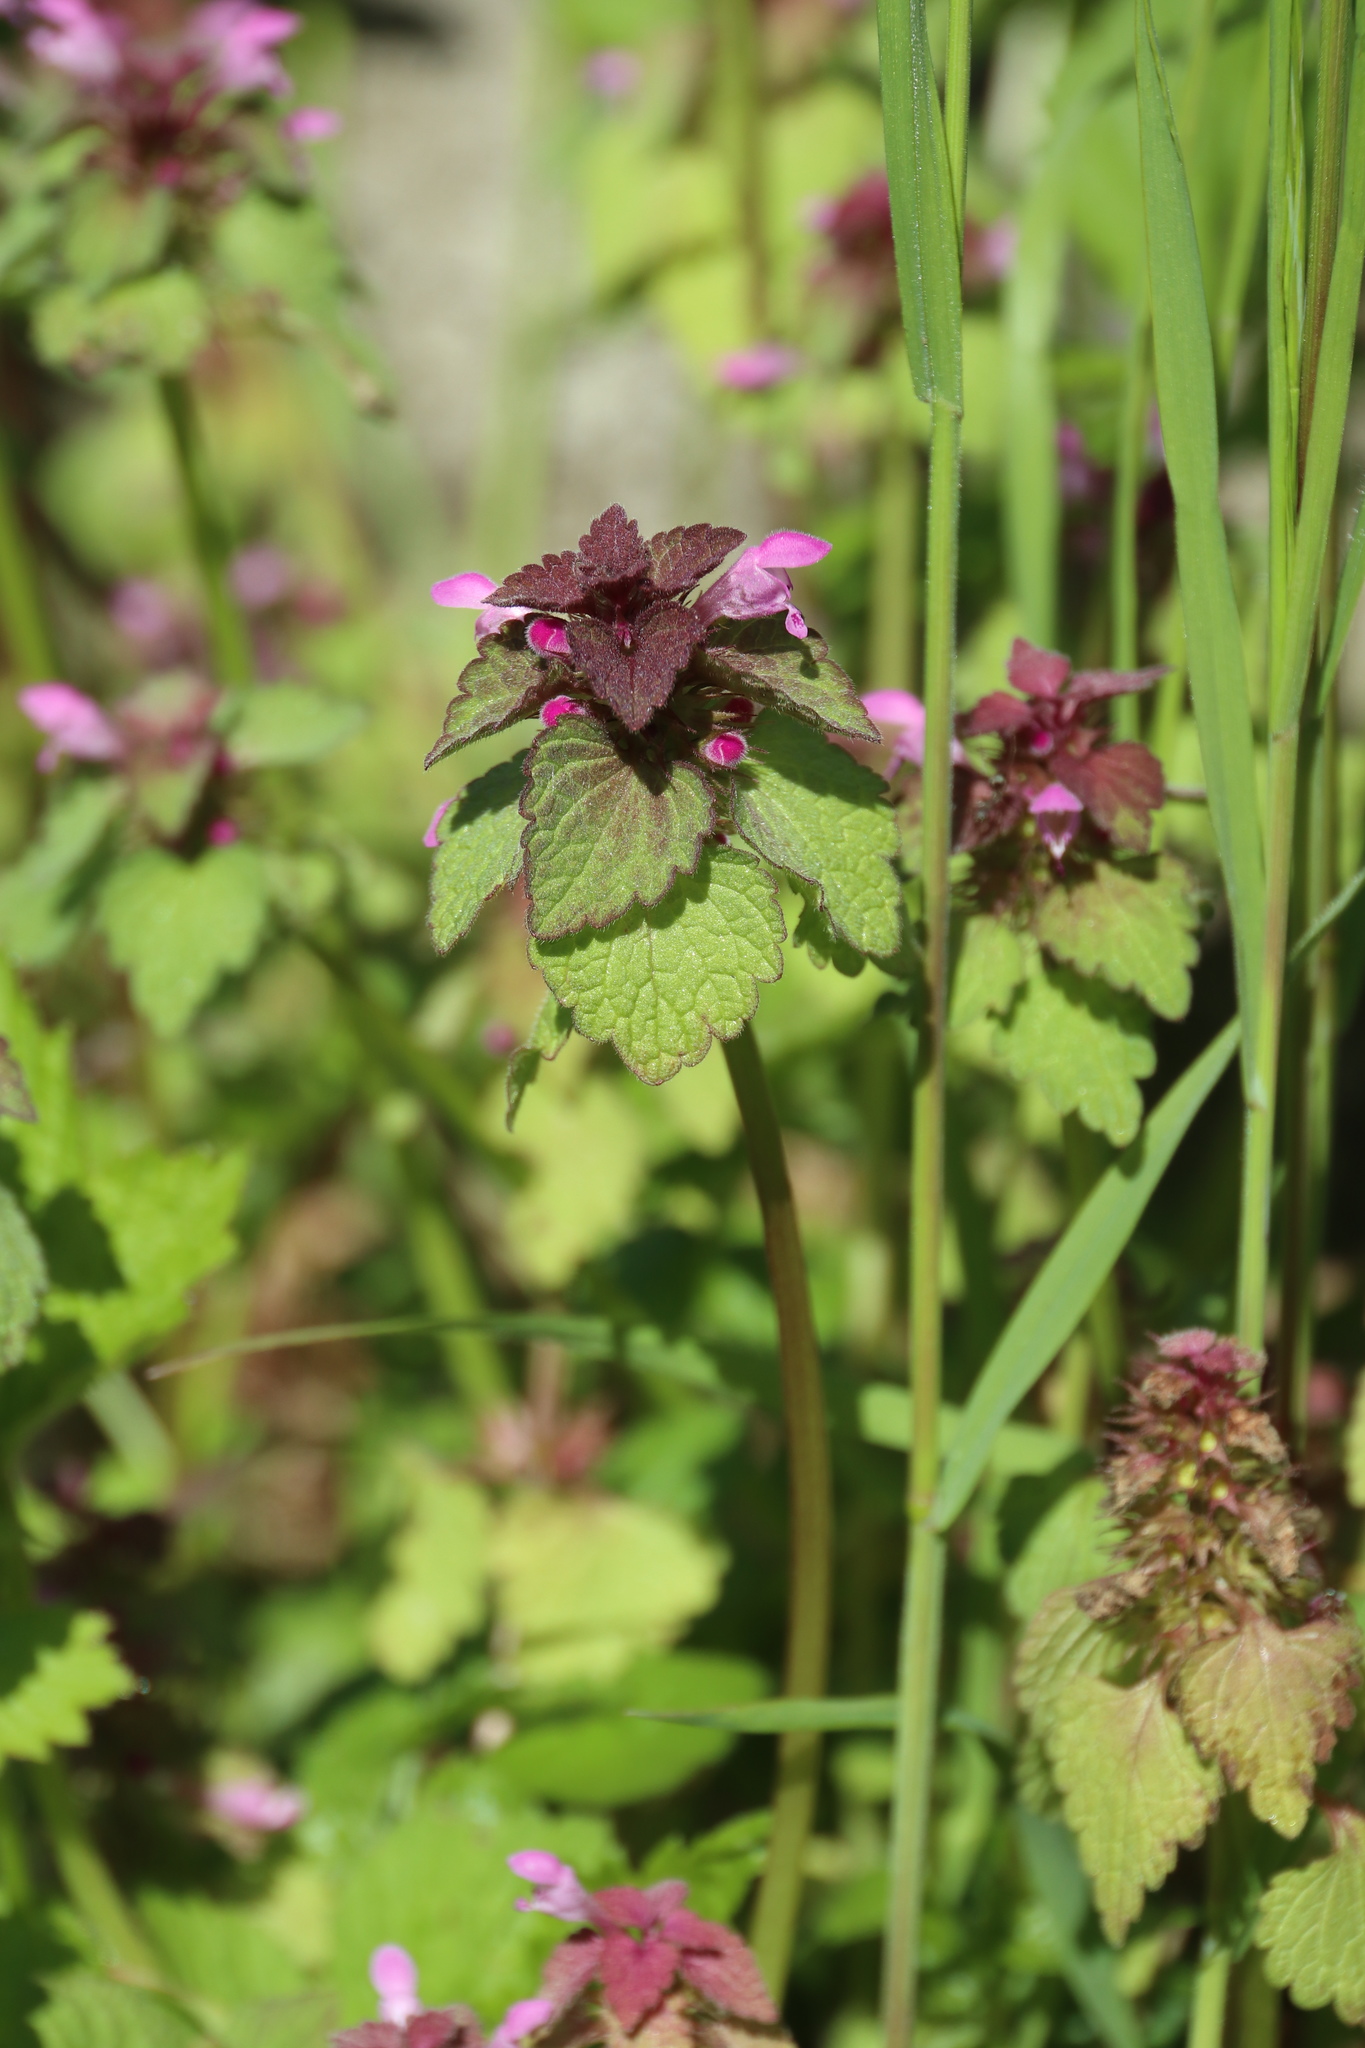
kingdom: Plantae
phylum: Tracheophyta
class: Magnoliopsida
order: Lamiales
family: Lamiaceae
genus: Lamium
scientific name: Lamium purpureum
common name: Red dead-nettle
